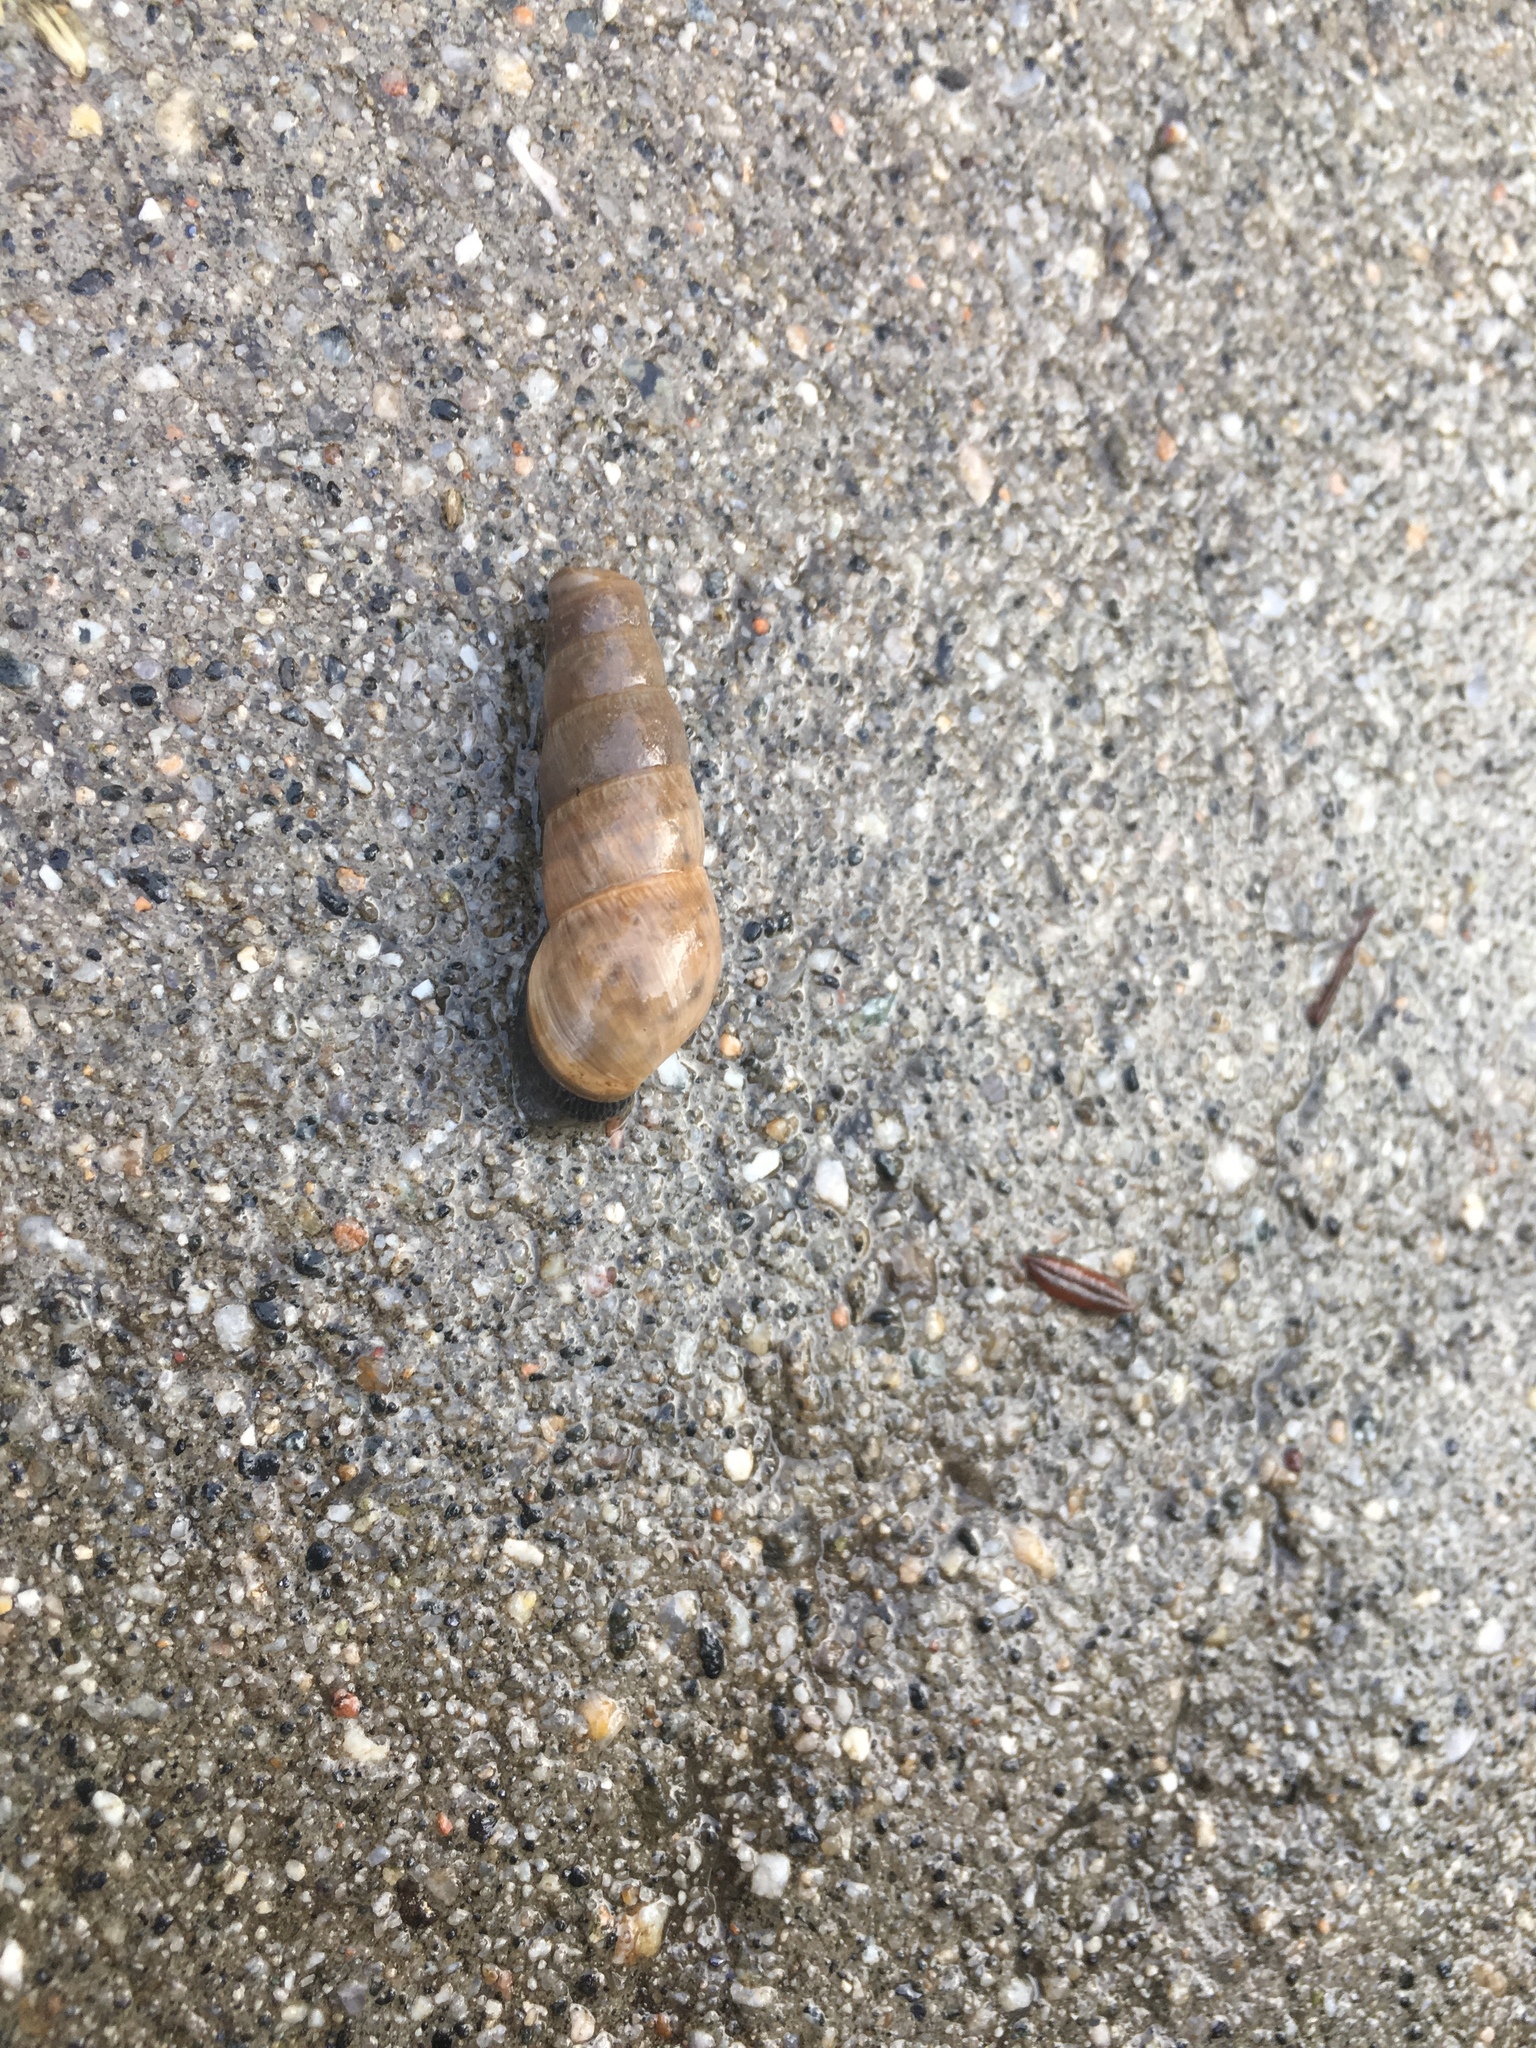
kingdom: Animalia
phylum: Mollusca
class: Gastropoda
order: Stylommatophora
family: Achatinidae
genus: Rumina
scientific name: Rumina decollata
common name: Decollate snail
